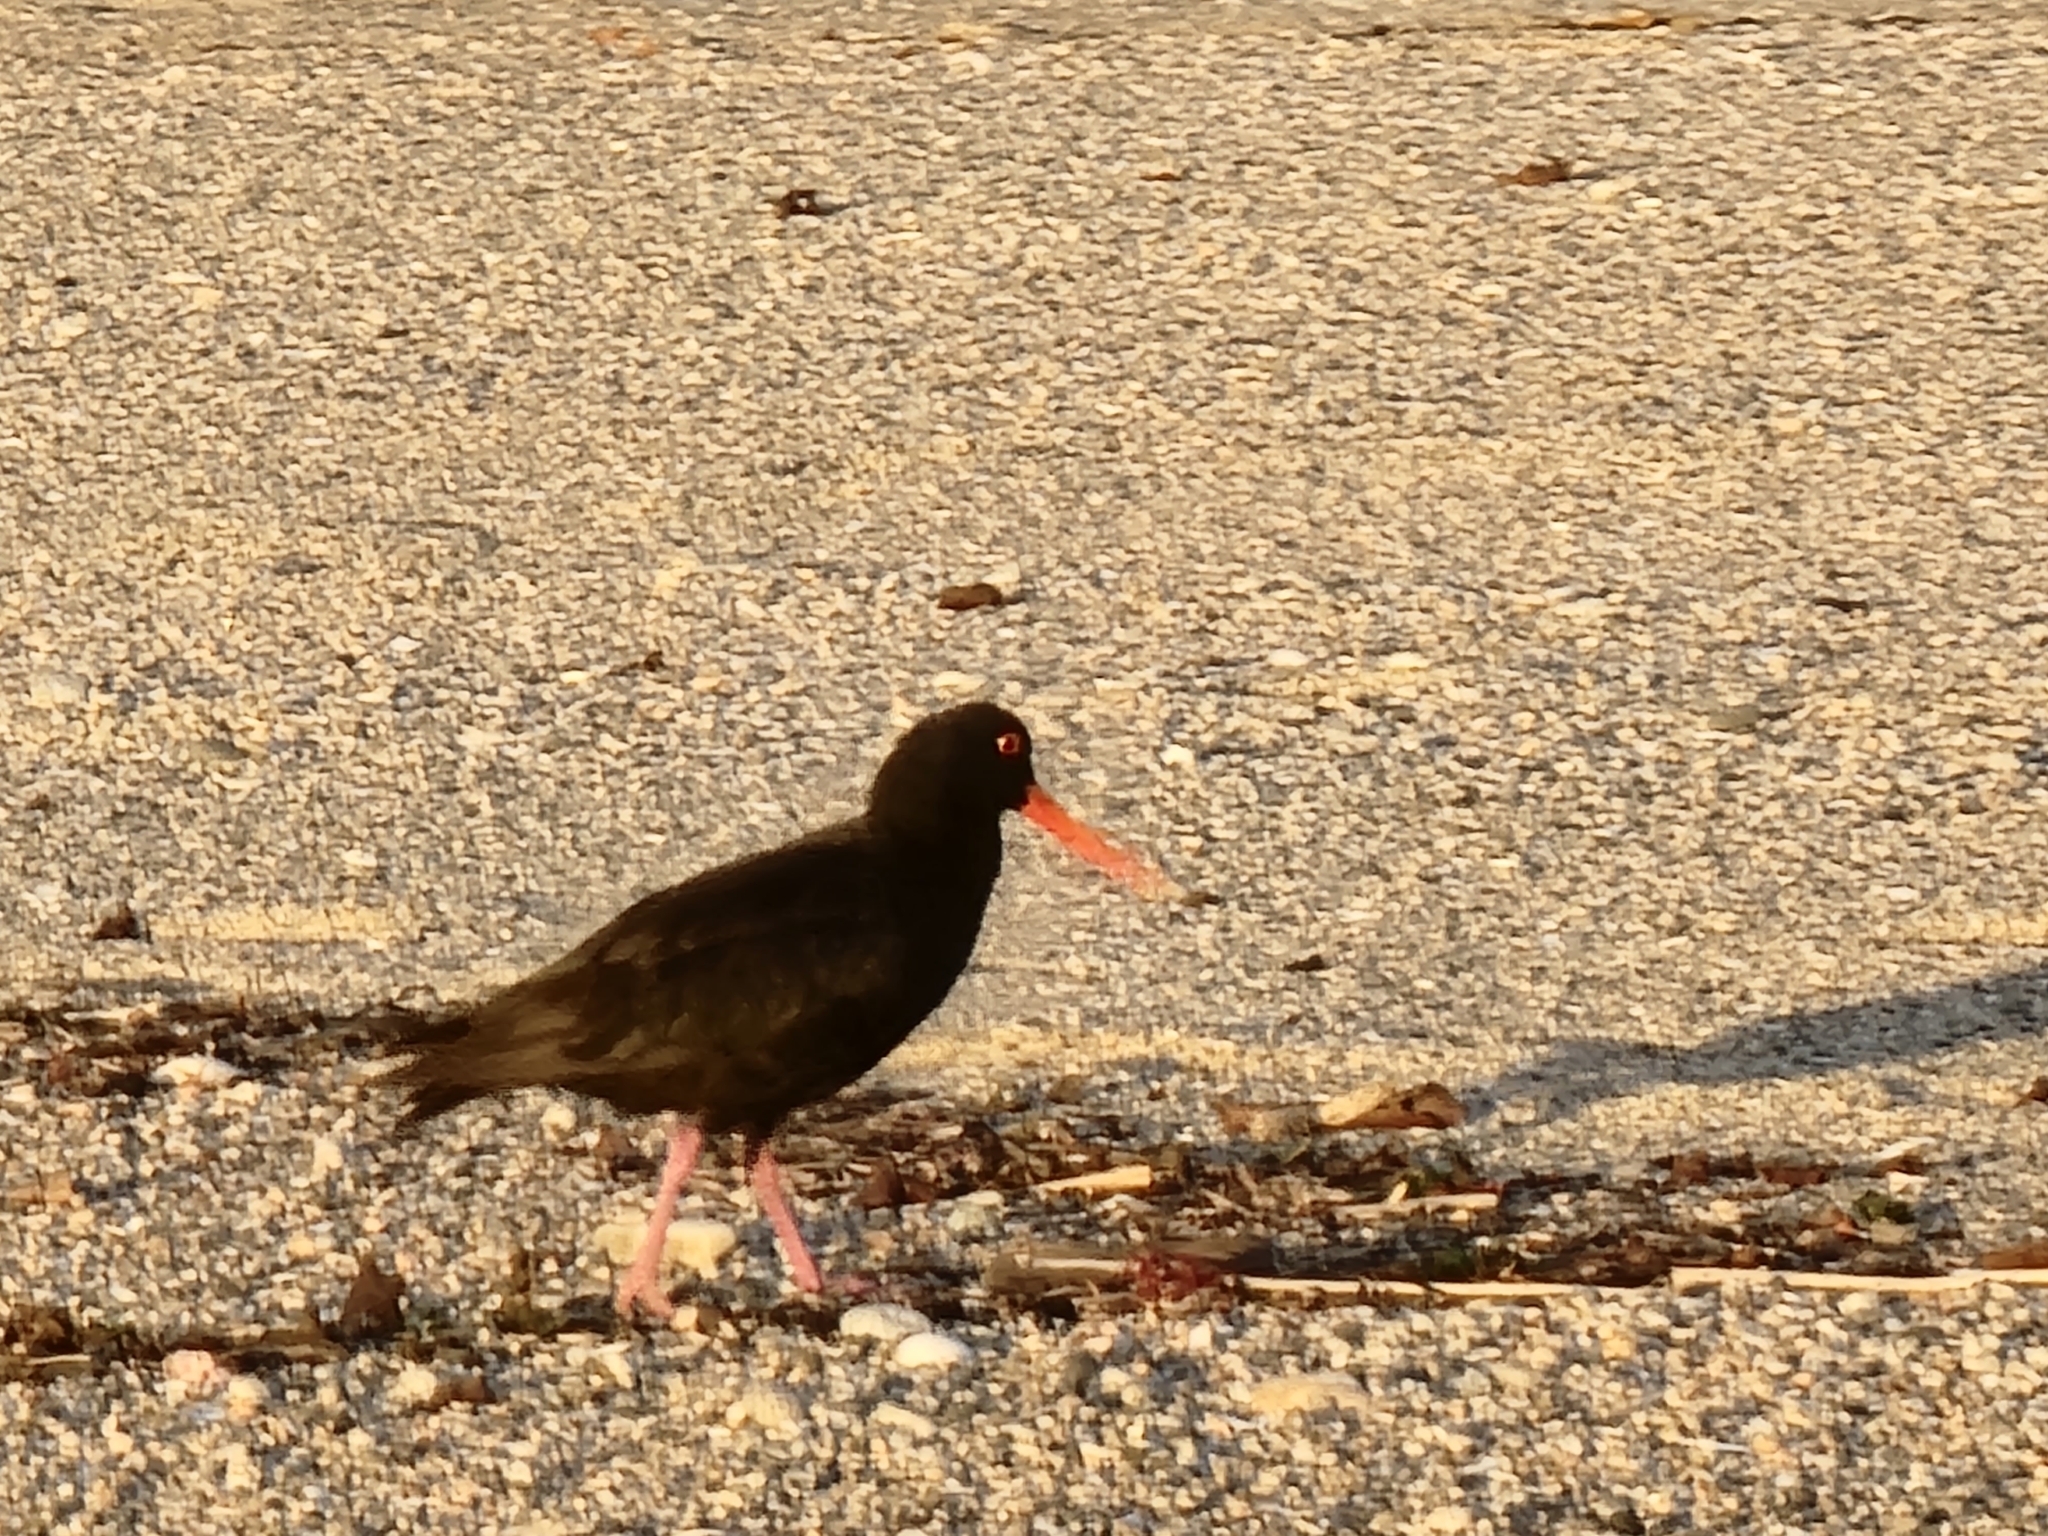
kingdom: Animalia
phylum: Chordata
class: Aves
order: Charadriiformes
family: Haematopodidae
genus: Haematopus
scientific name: Haematopus unicolor
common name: Variable oystercatcher
